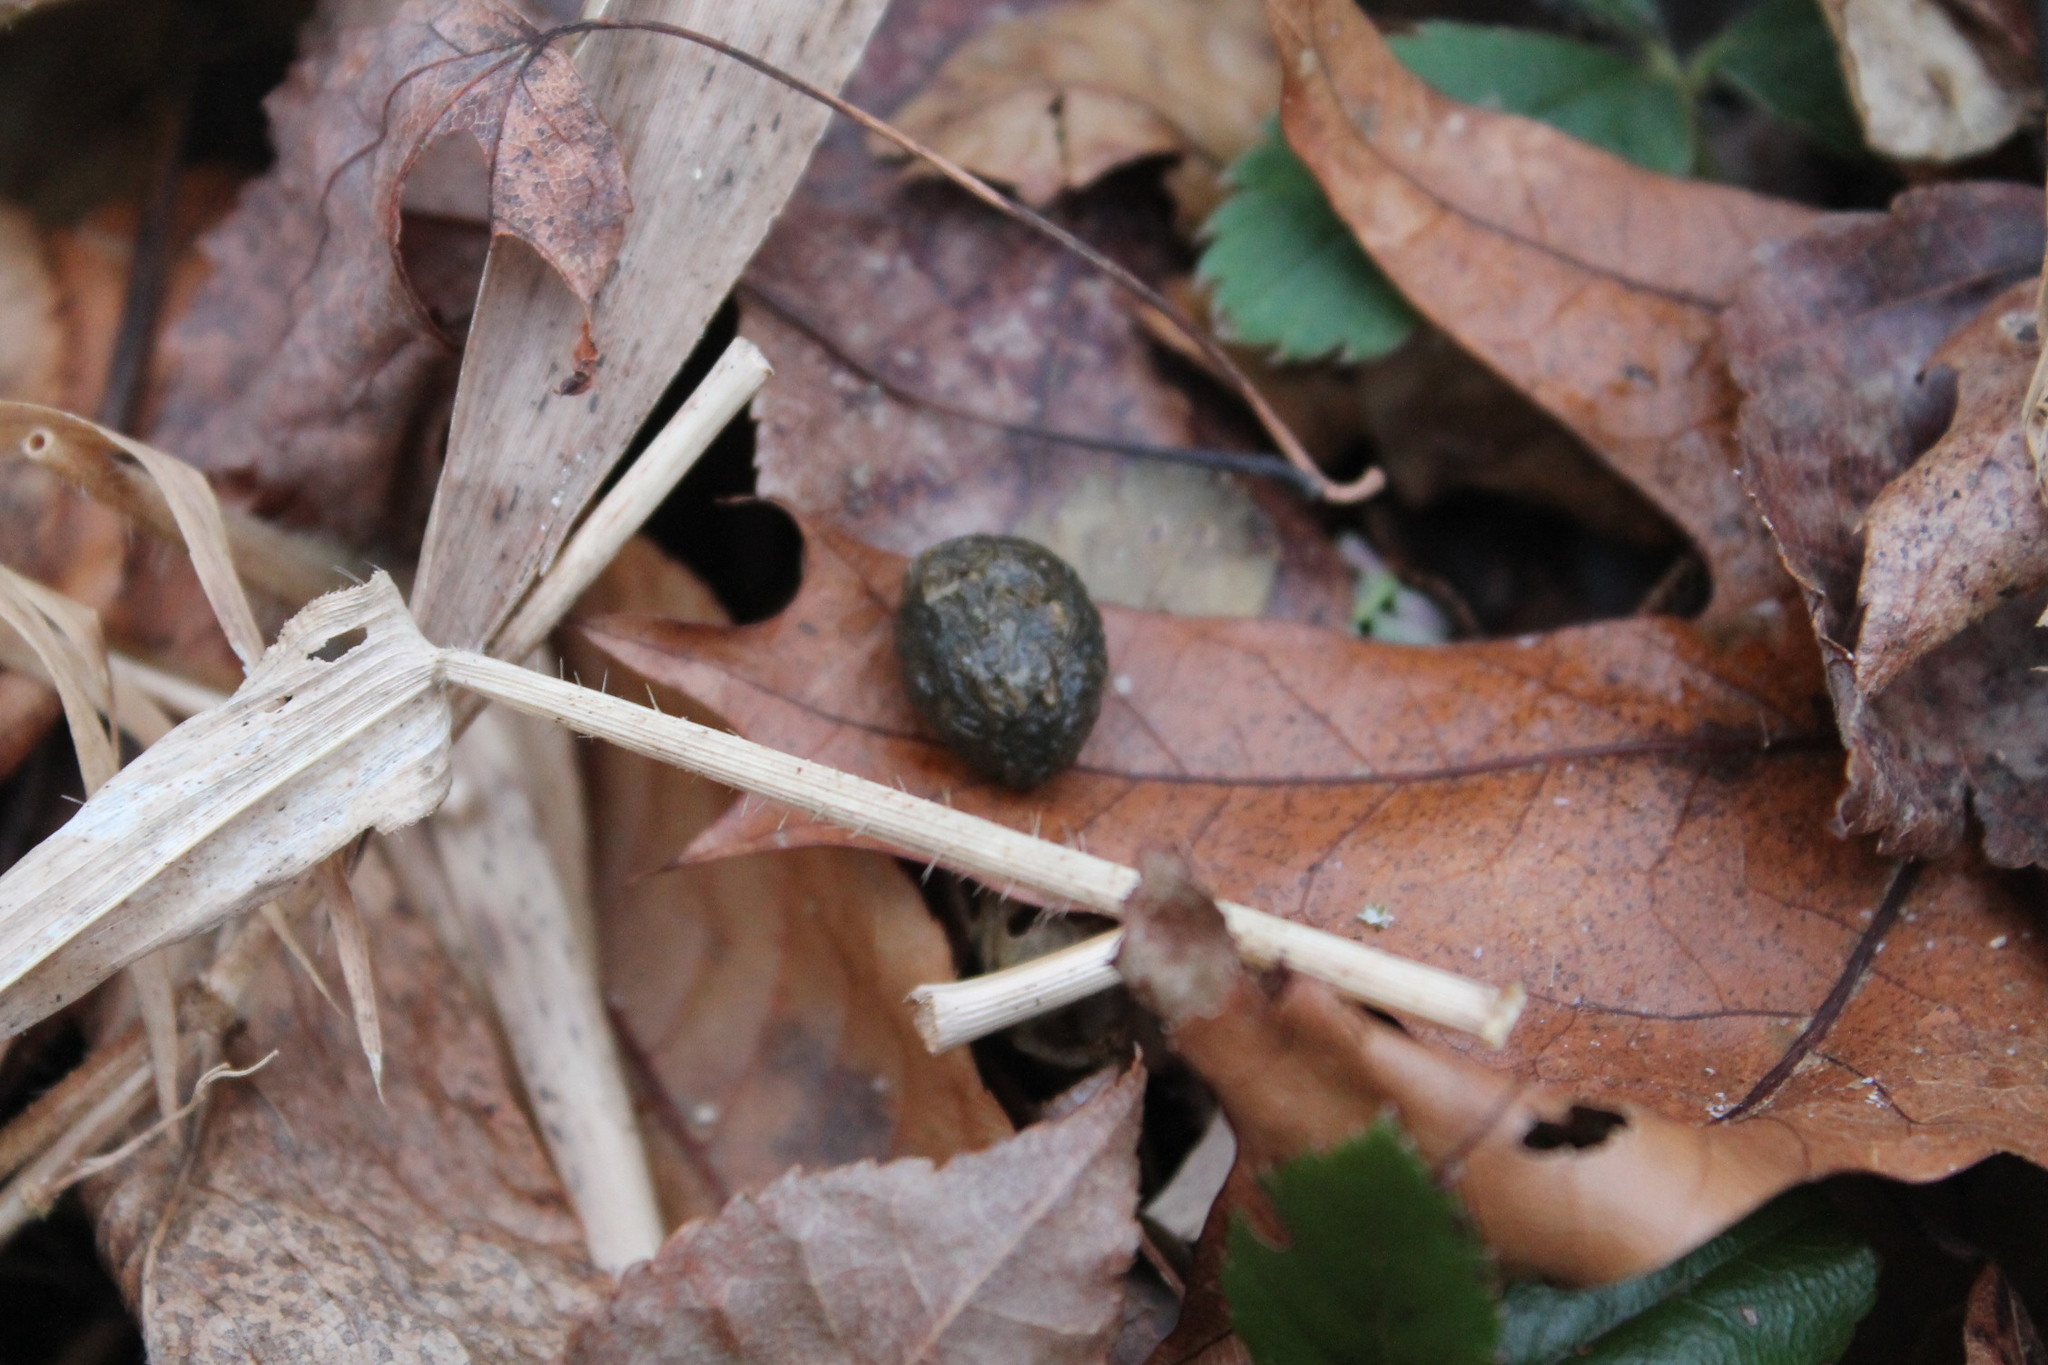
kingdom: Animalia
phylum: Chordata
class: Mammalia
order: Lagomorpha
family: Leporidae
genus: Sylvilagus
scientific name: Sylvilagus floridanus
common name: Eastern cottontail
